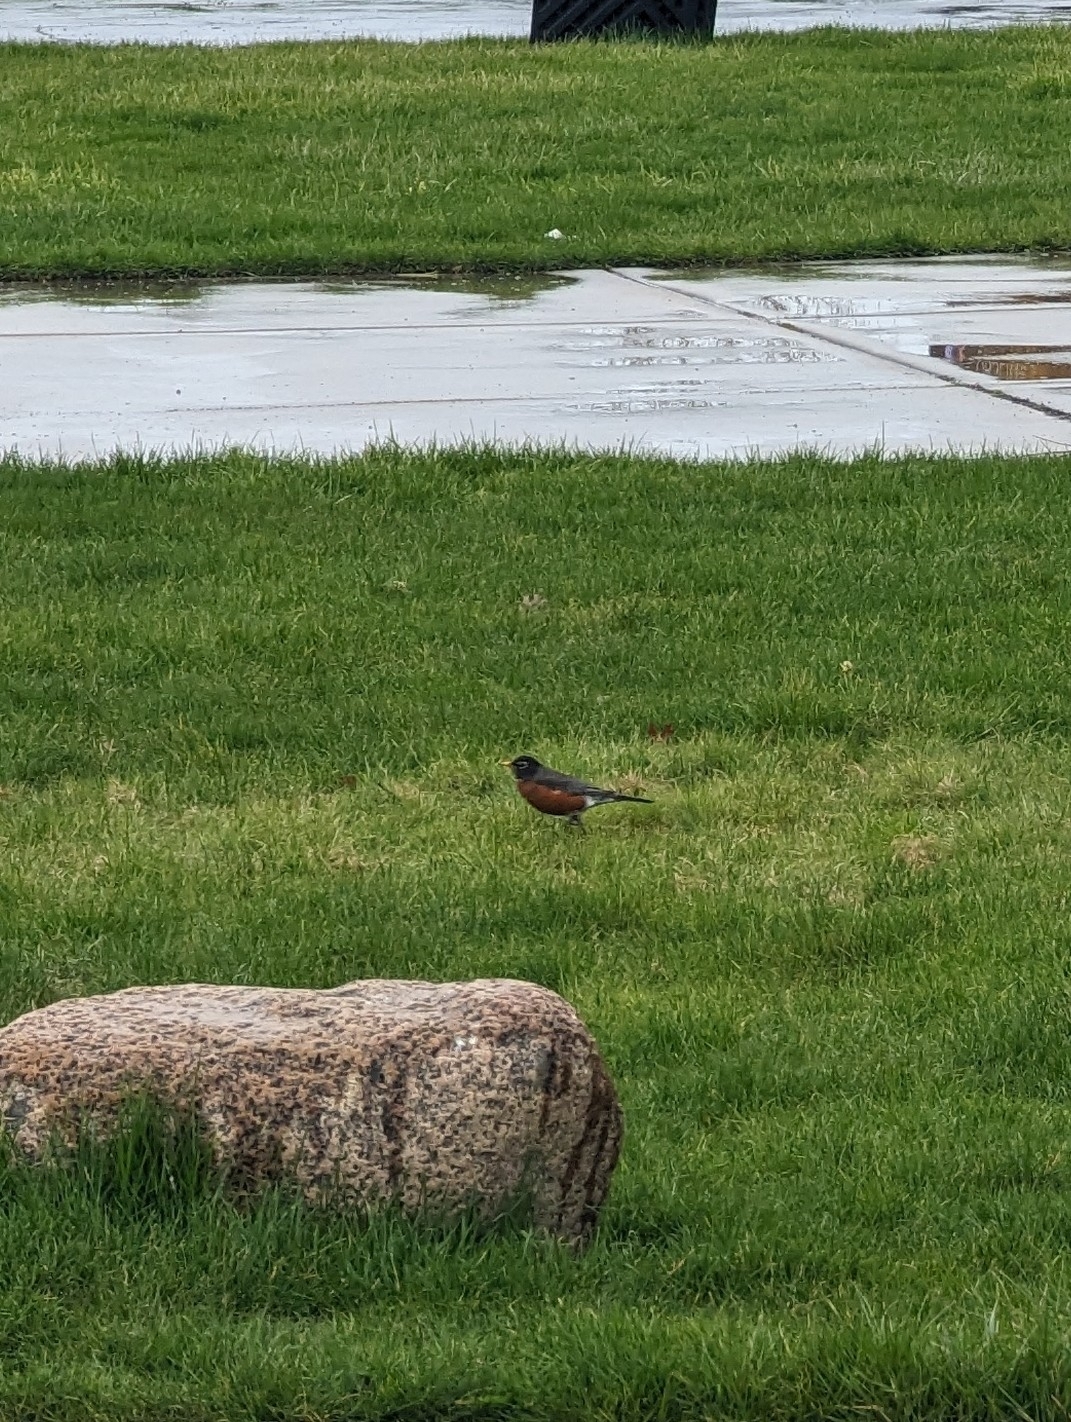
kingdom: Animalia
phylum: Chordata
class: Aves
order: Passeriformes
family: Turdidae
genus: Turdus
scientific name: Turdus migratorius
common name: American robin
